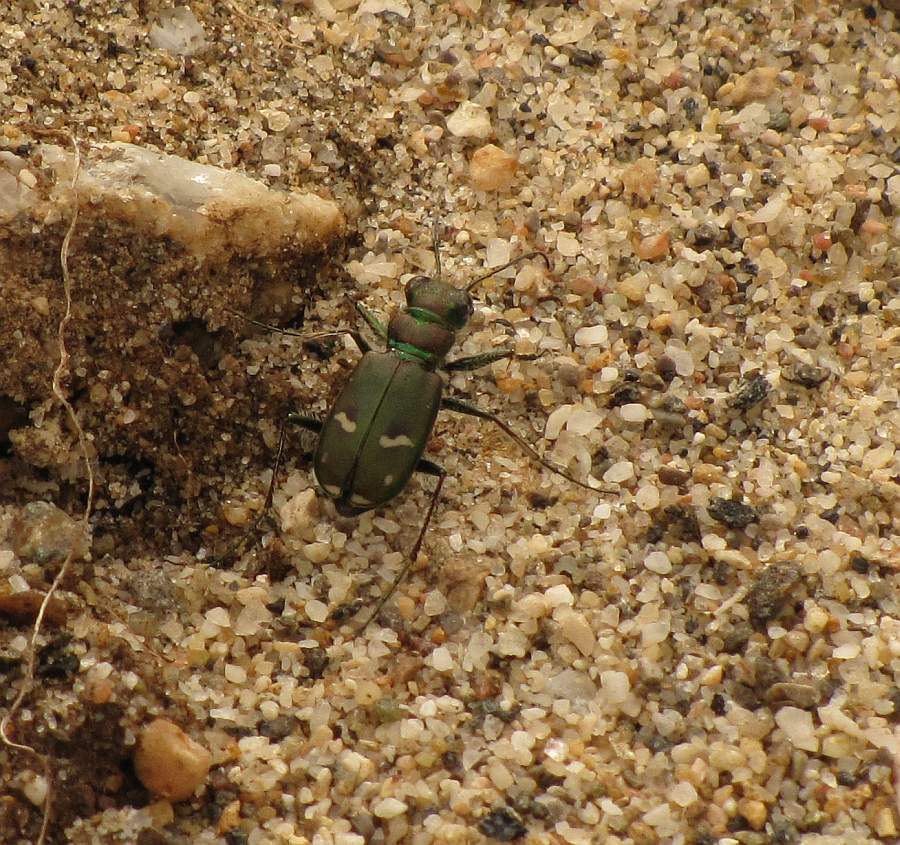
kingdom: Animalia
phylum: Arthropoda
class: Insecta
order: Coleoptera
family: Carabidae
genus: Cicindela
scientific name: Cicindela purpurea
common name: Cow path tiger beetle
